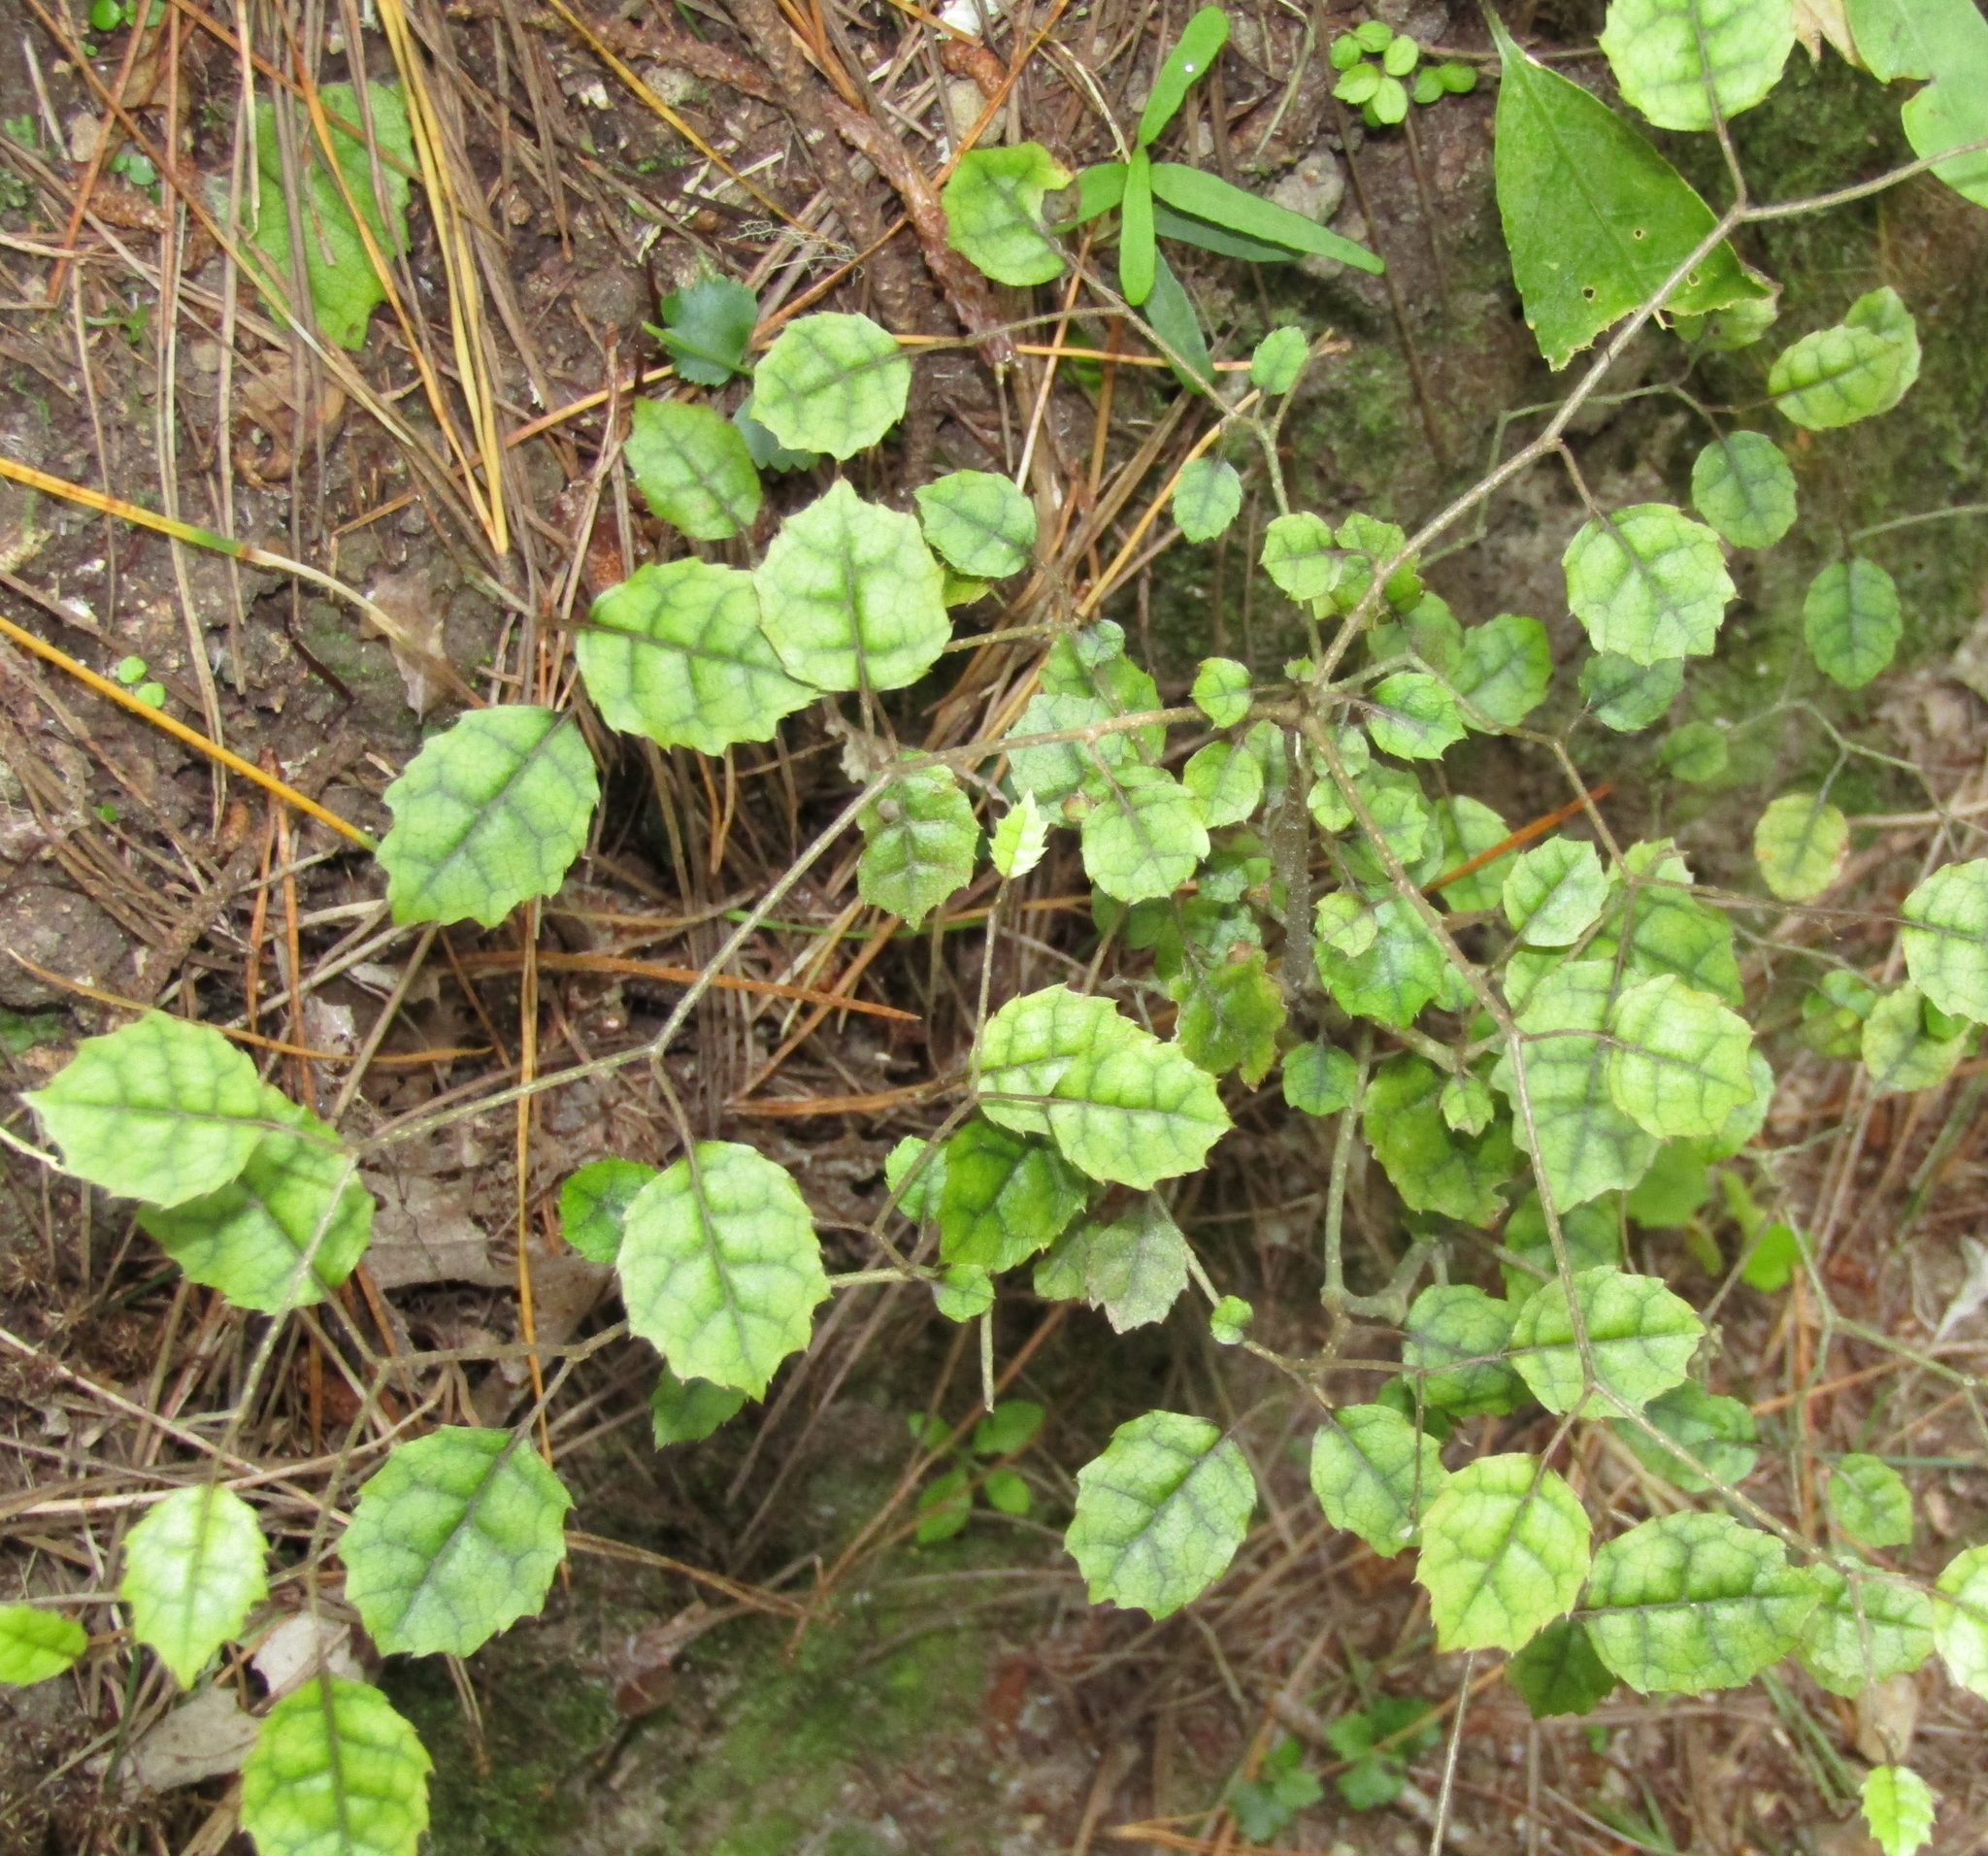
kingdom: Plantae
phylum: Tracheophyta
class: Magnoliopsida
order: Asterales
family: Rousseaceae
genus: Carpodetus
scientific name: Carpodetus serratus
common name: White mapau
